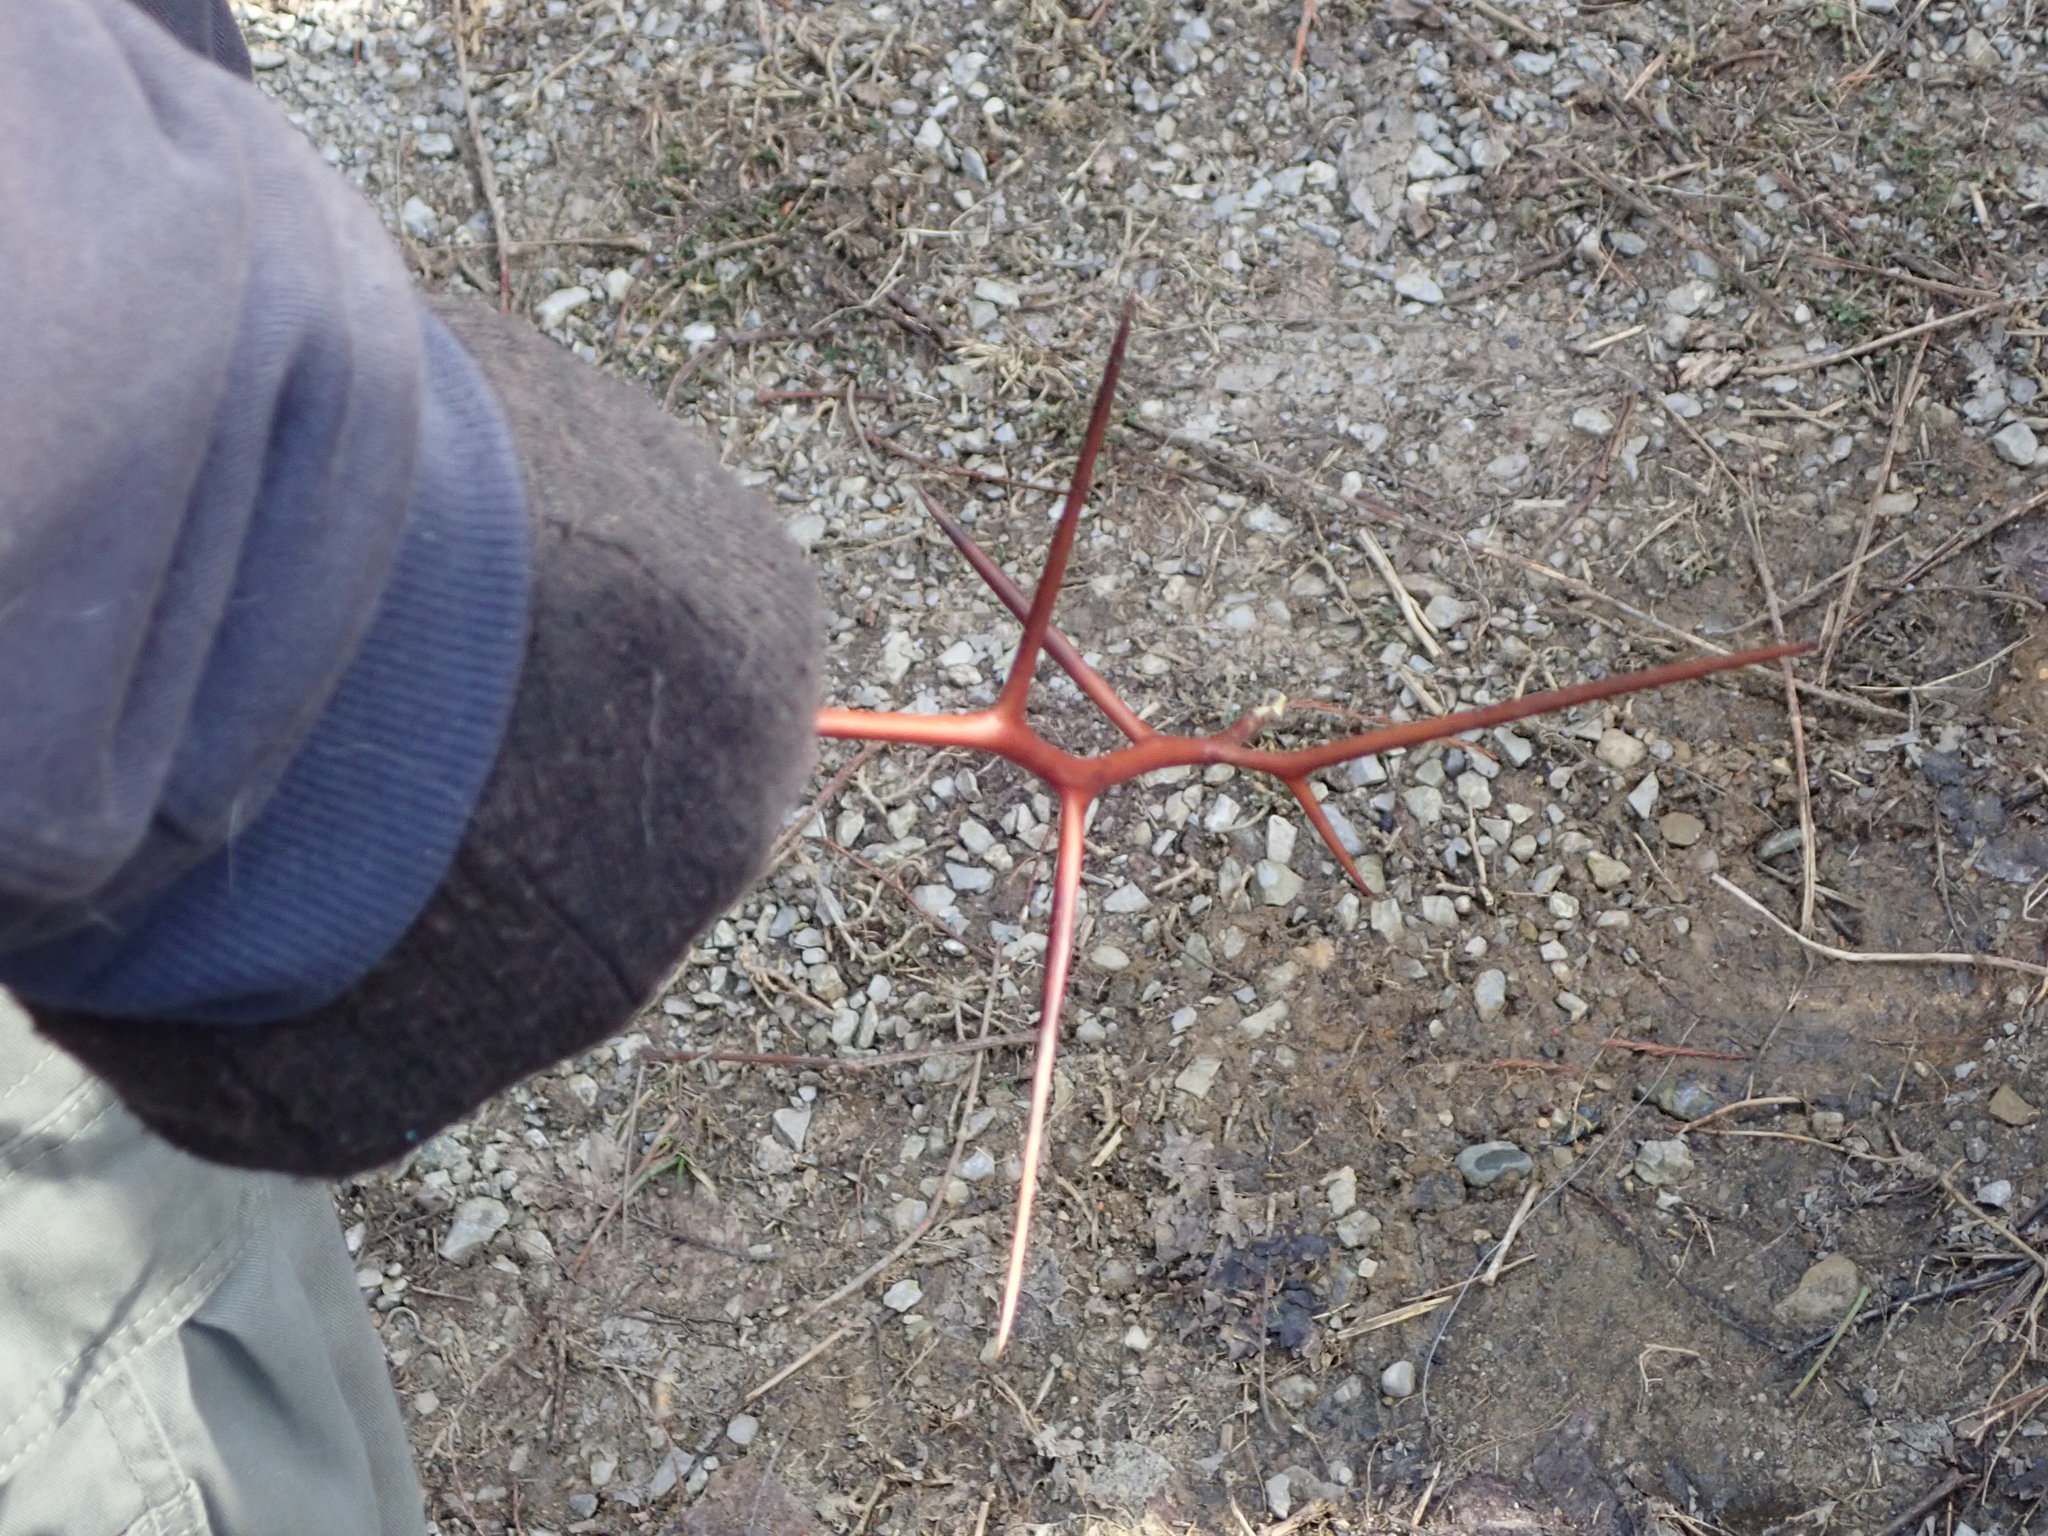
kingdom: Plantae
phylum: Tracheophyta
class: Magnoliopsida
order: Fabales
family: Fabaceae
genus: Gleditsia
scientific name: Gleditsia triacanthos
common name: Common honeylocust
